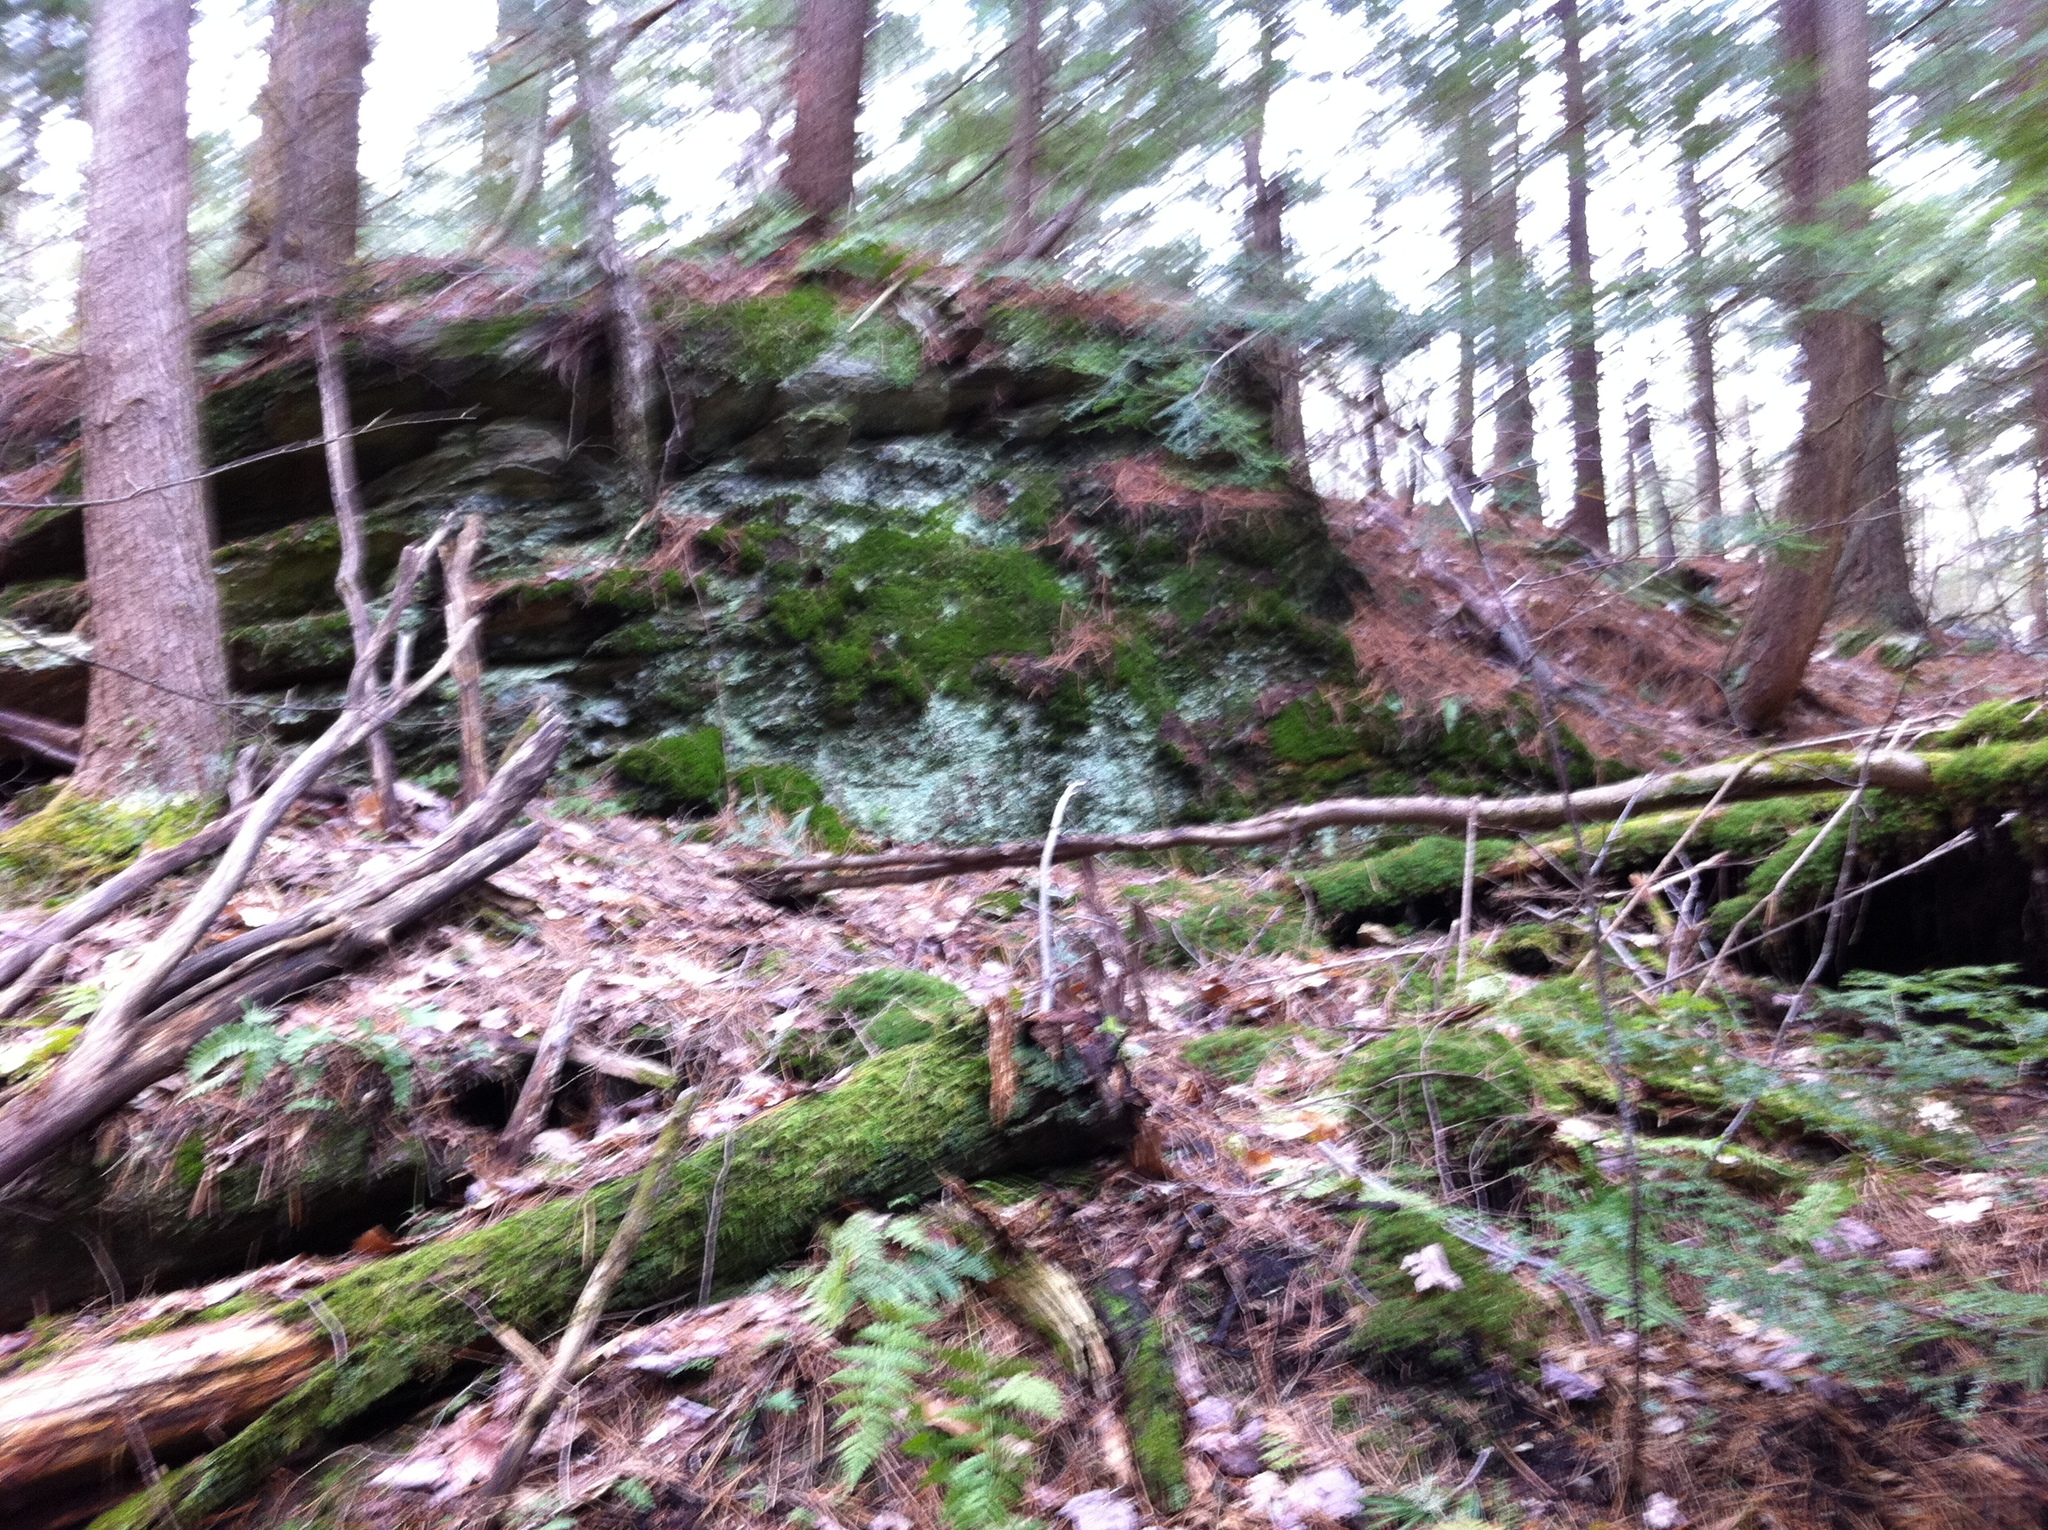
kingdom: Plantae
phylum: Tracheophyta
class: Pinopsida
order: Pinales
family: Pinaceae
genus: Tsuga
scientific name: Tsuga canadensis
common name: Eastern hemlock
